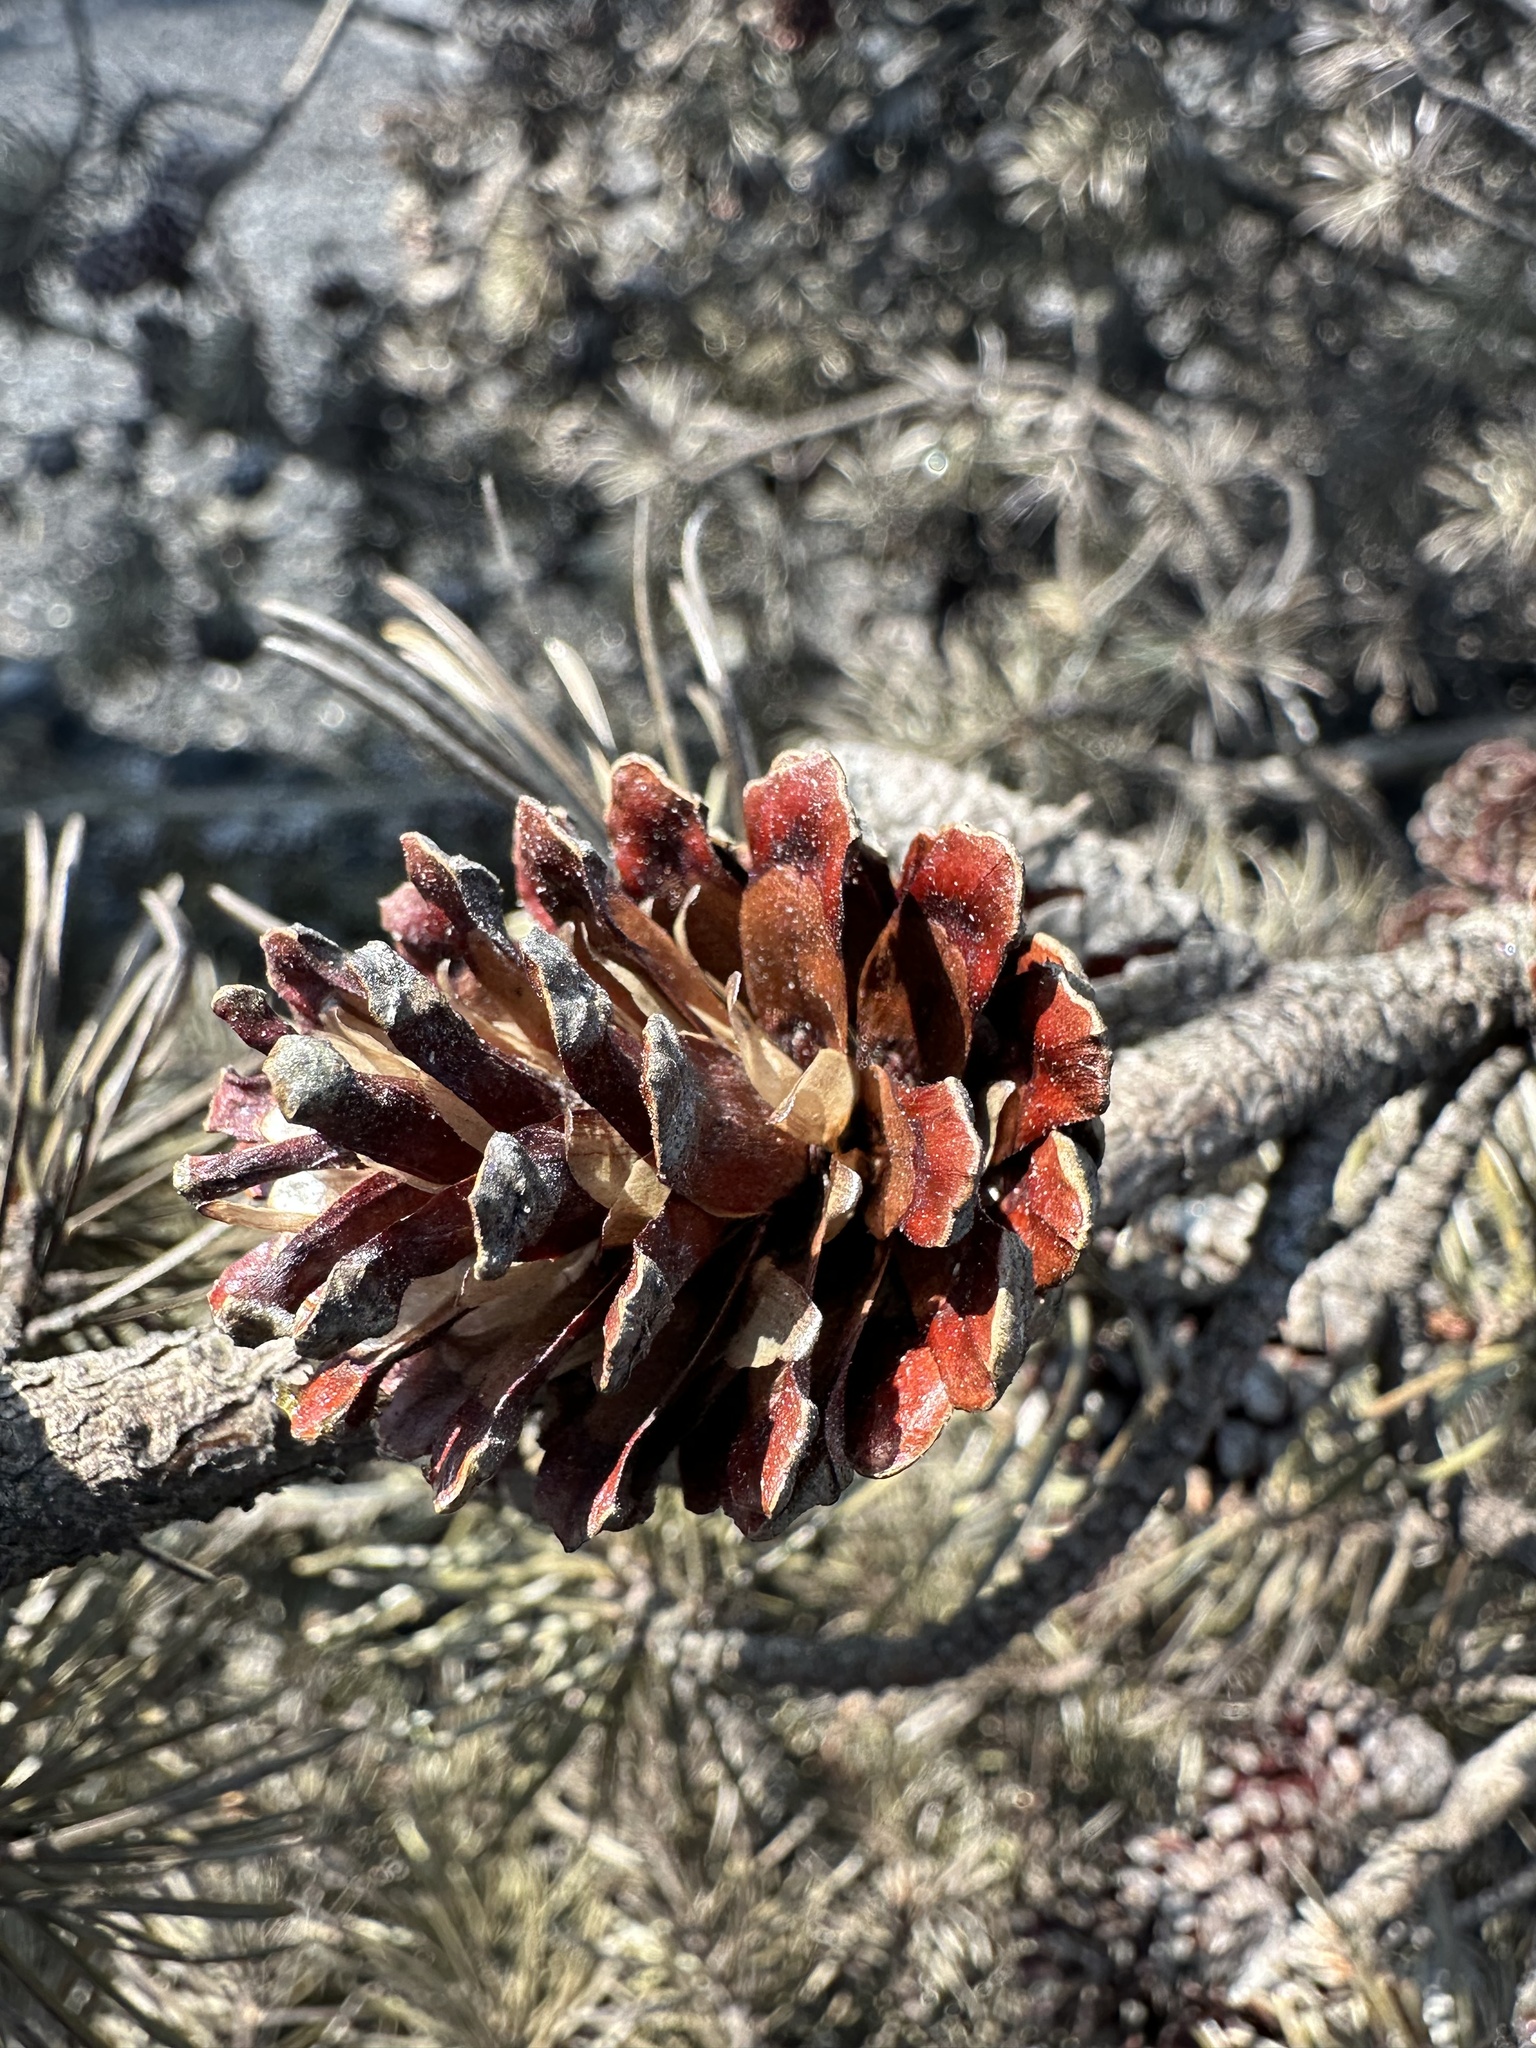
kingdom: Plantae
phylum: Tracheophyta
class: Pinopsida
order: Pinales
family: Pinaceae
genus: Pinus
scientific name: Pinus banksiana
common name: Jack pine
